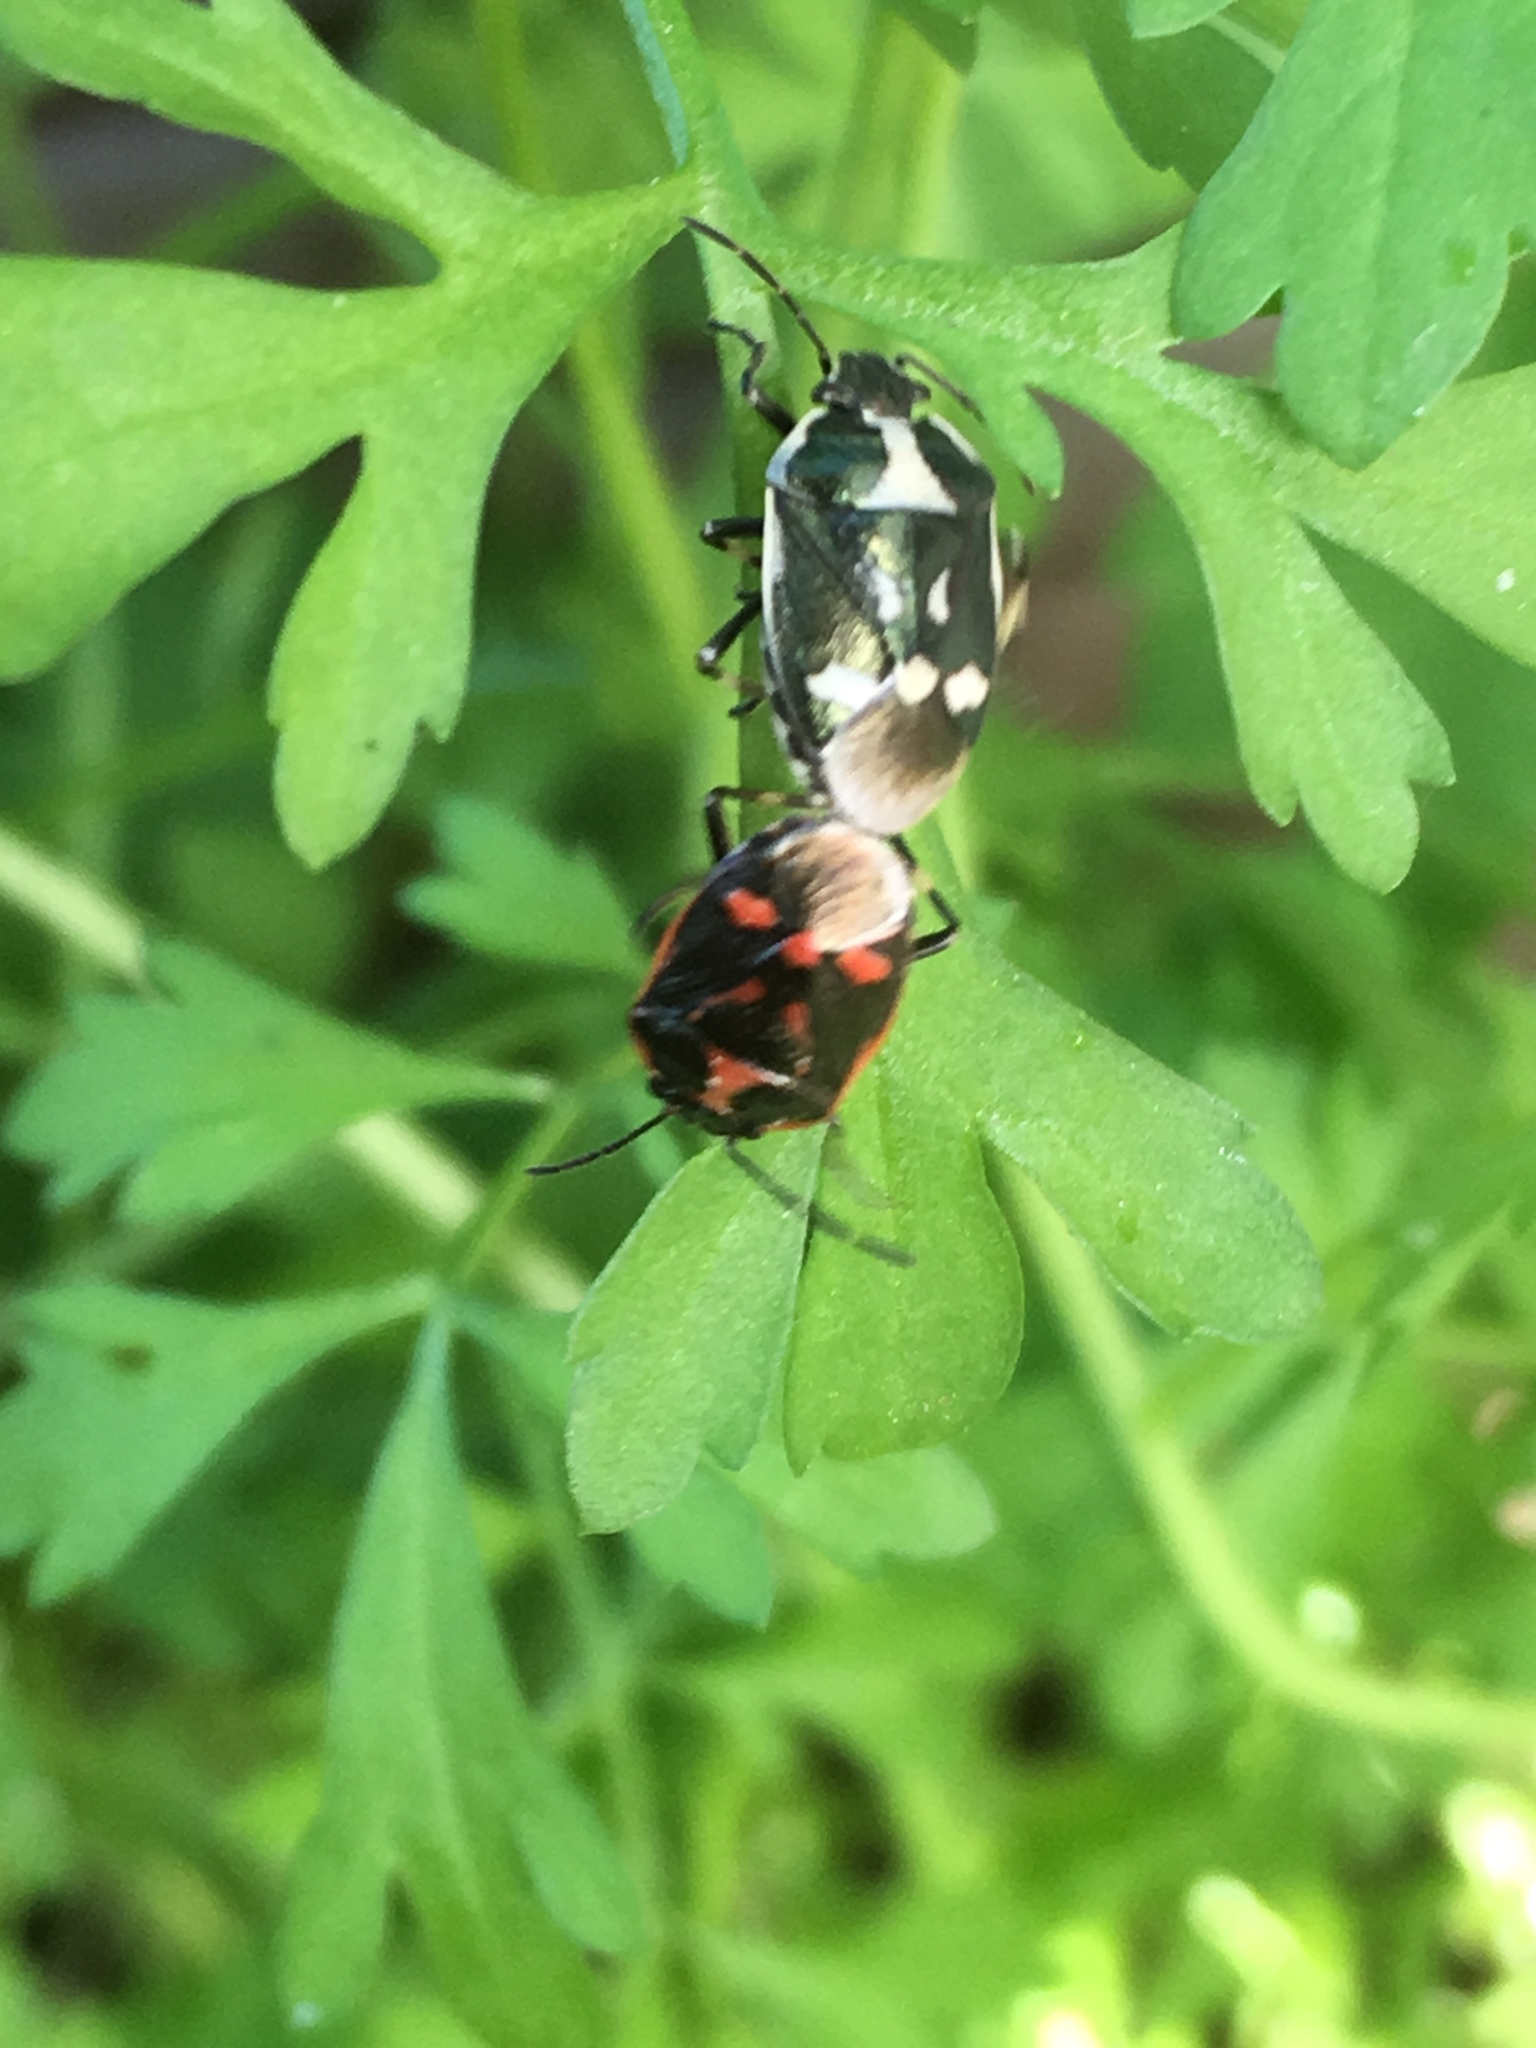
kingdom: Animalia
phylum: Arthropoda
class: Insecta
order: Hemiptera
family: Pentatomidae
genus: Eurydema
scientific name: Eurydema oleracea
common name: Cabbage bug
